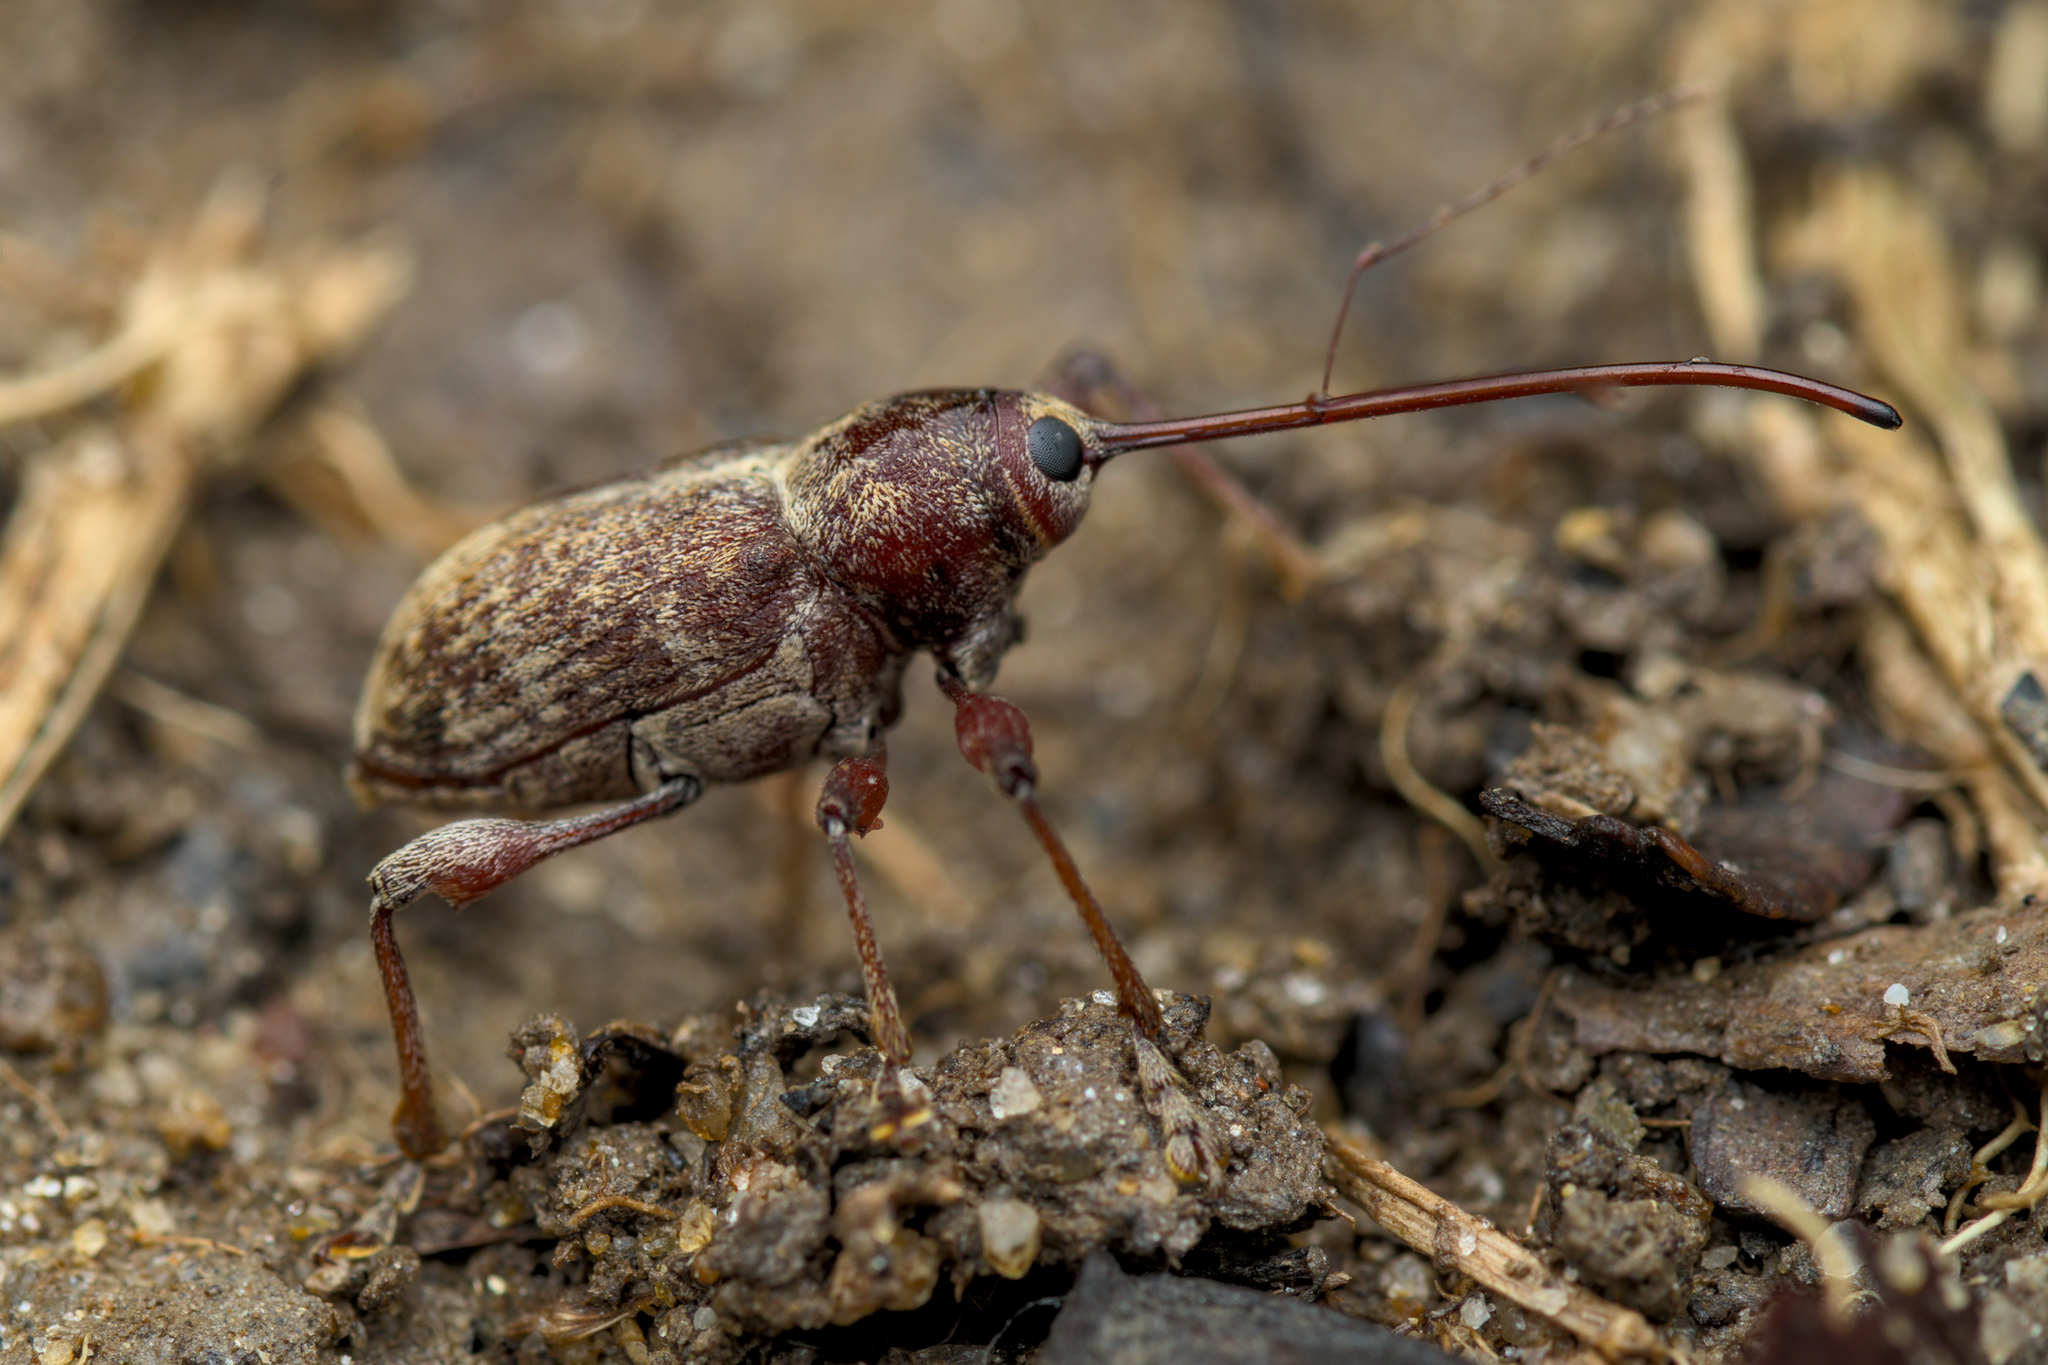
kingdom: Animalia
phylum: Arthropoda
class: Insecta
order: Coleoptera
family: Curculionidae
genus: Curculio
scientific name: Curculio elephas
